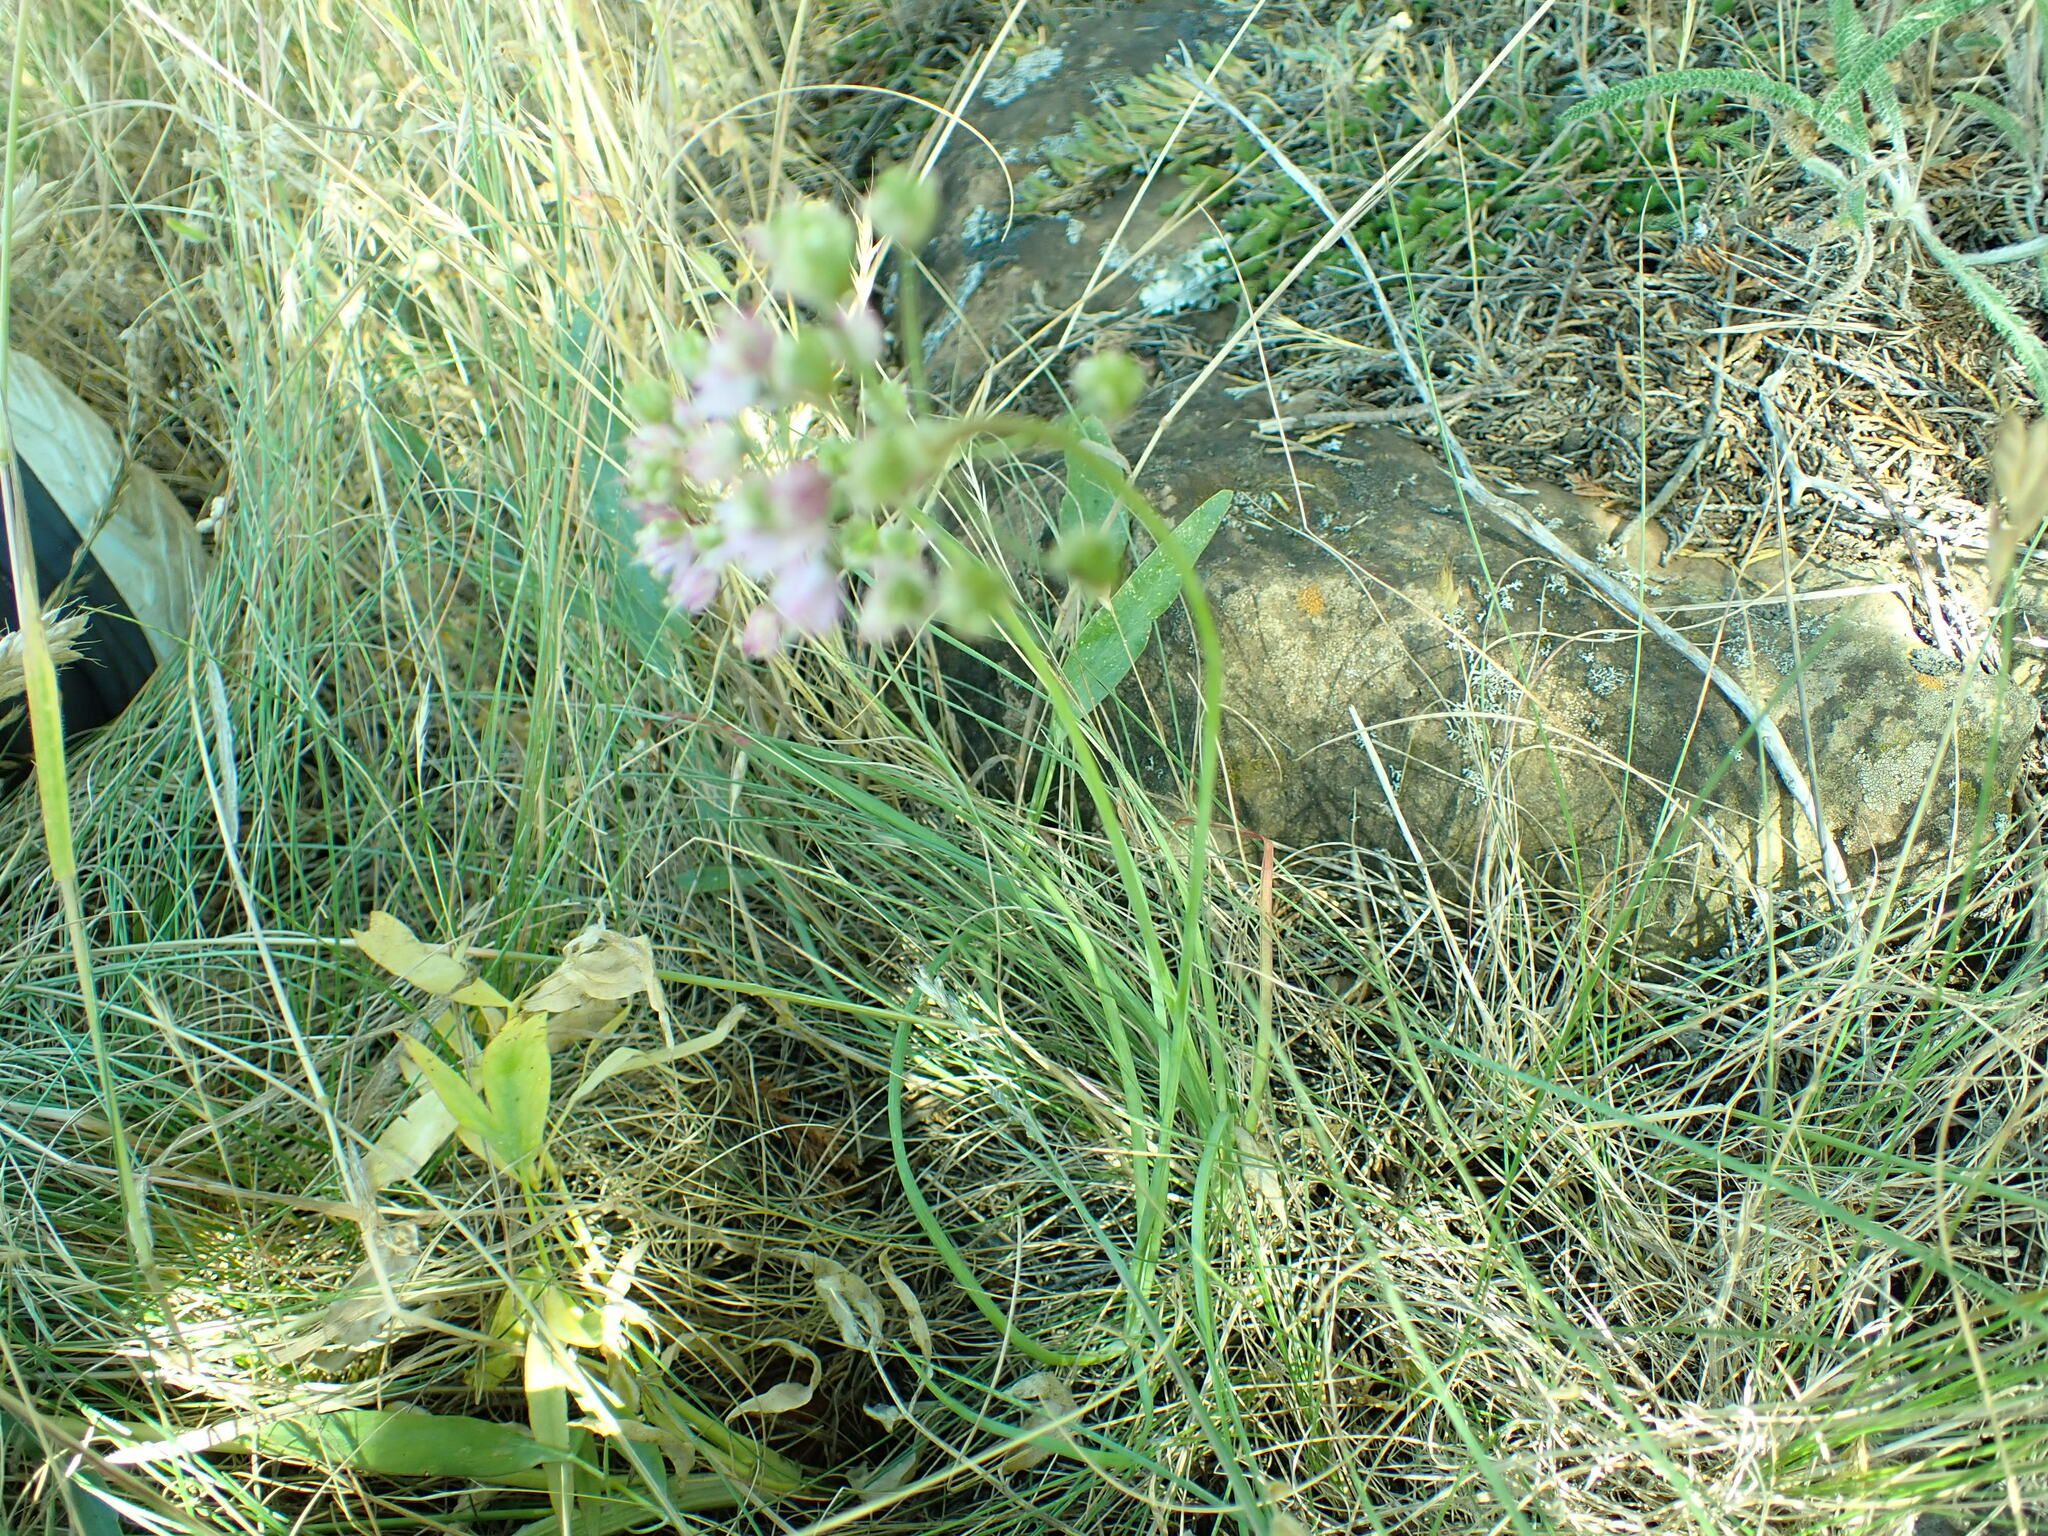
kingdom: Plantae
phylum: Tracheophyta
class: Liliopsida
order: Asparagales
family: Amaryllidaceae
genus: Allium
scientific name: Allium cernuum
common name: Nodding onion
